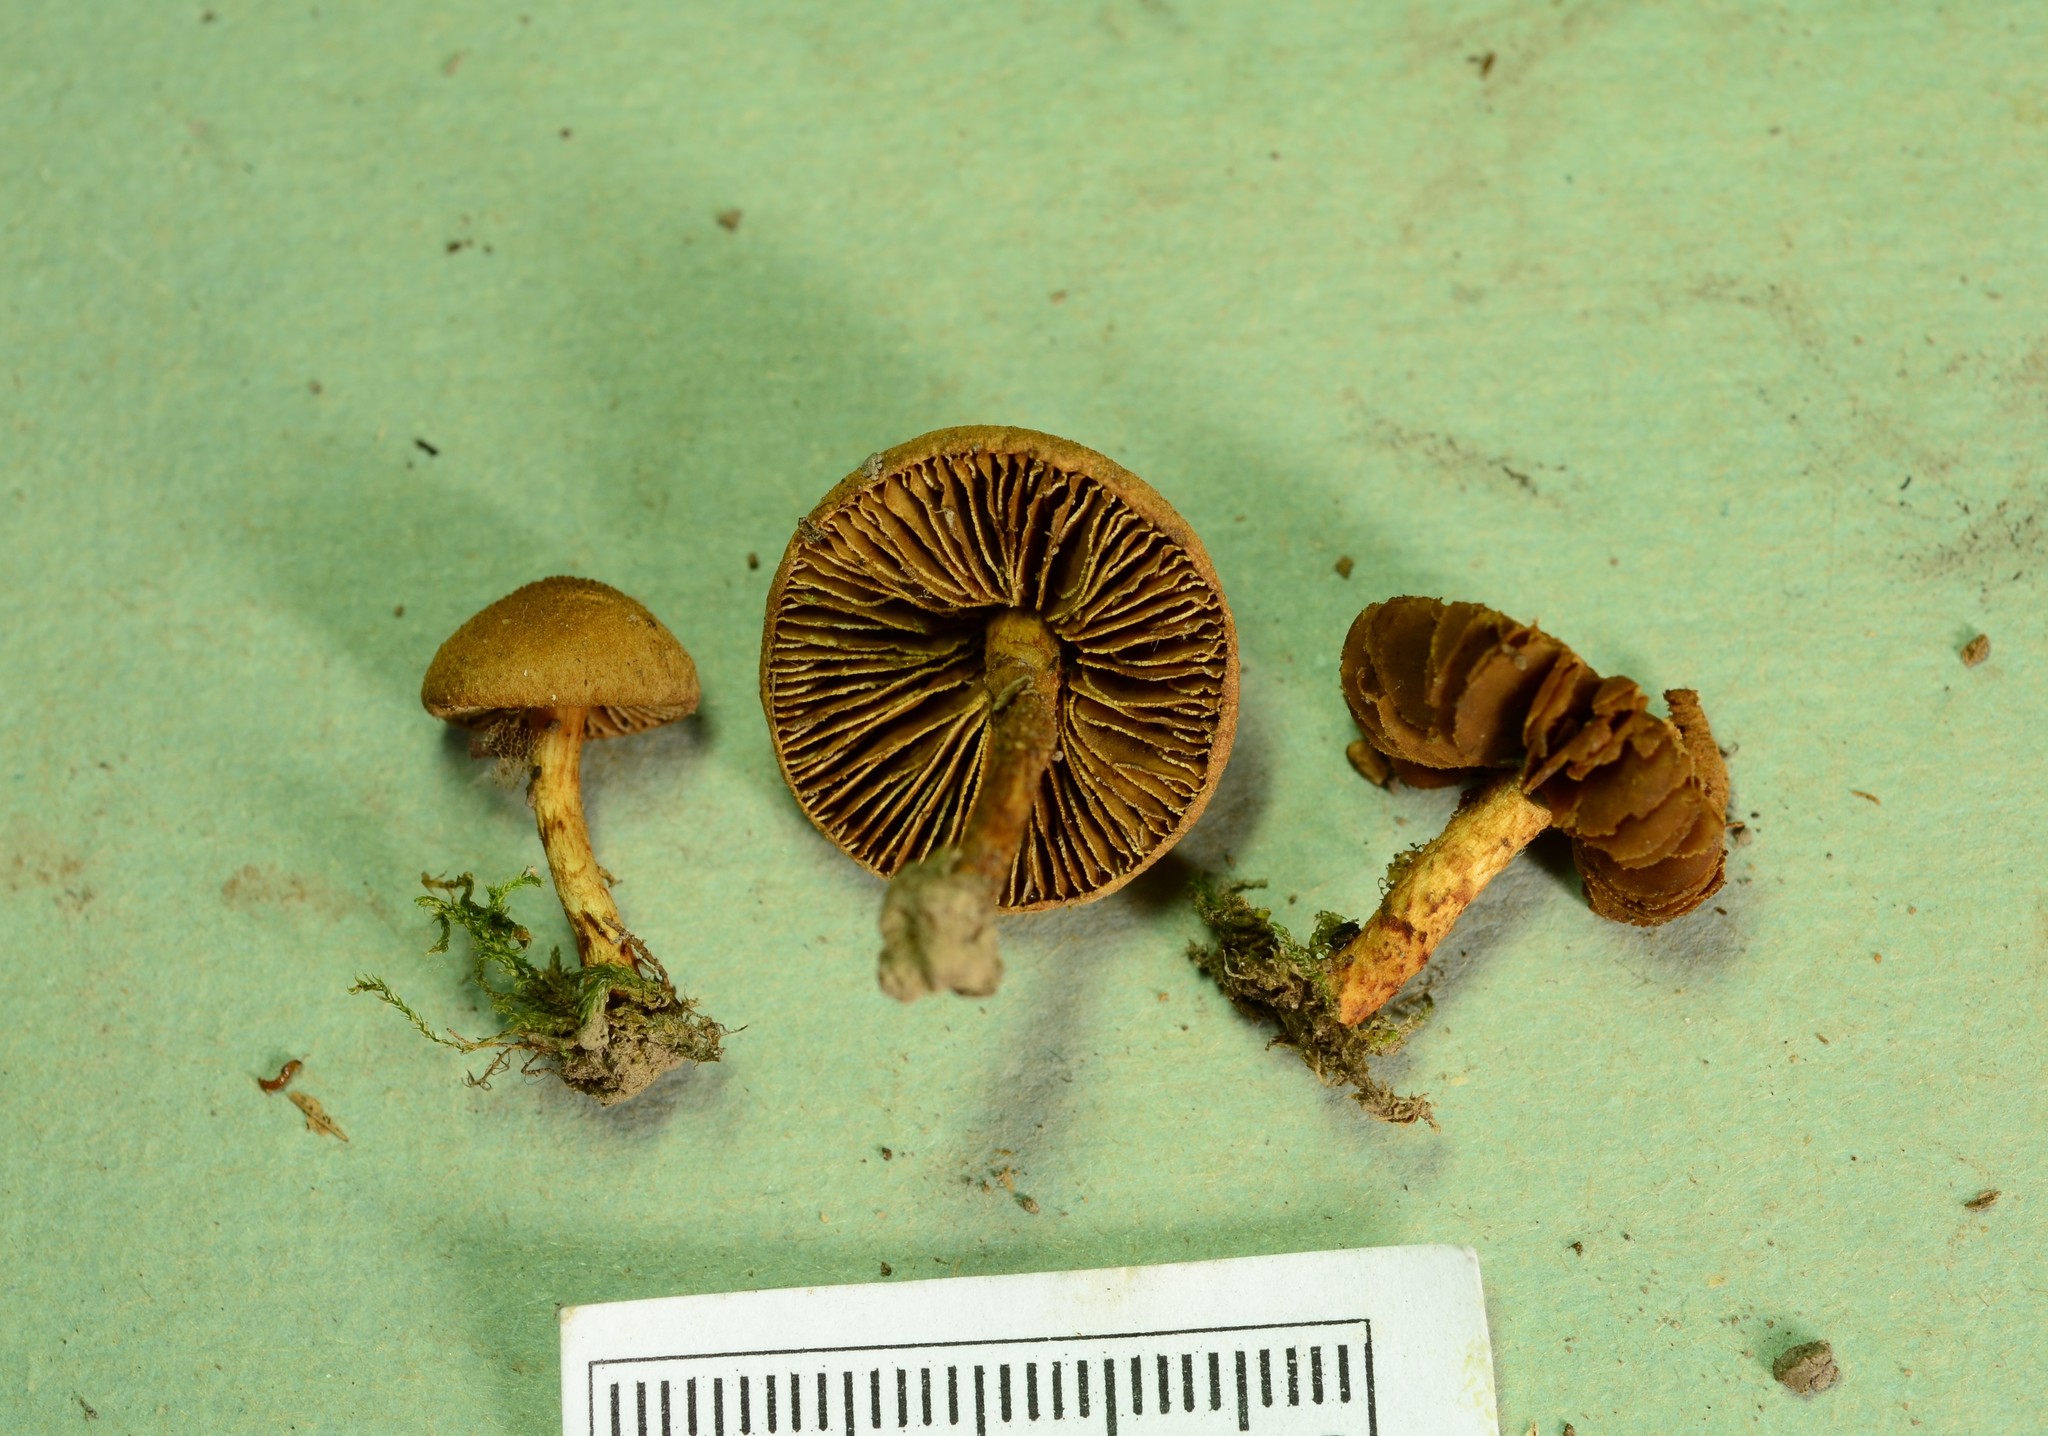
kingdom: Fungi
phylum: Basidiomycota
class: Agaricomycetes
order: Agaricales
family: Inocybaceae
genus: Mallocybe
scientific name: Mallocybe unicolor
